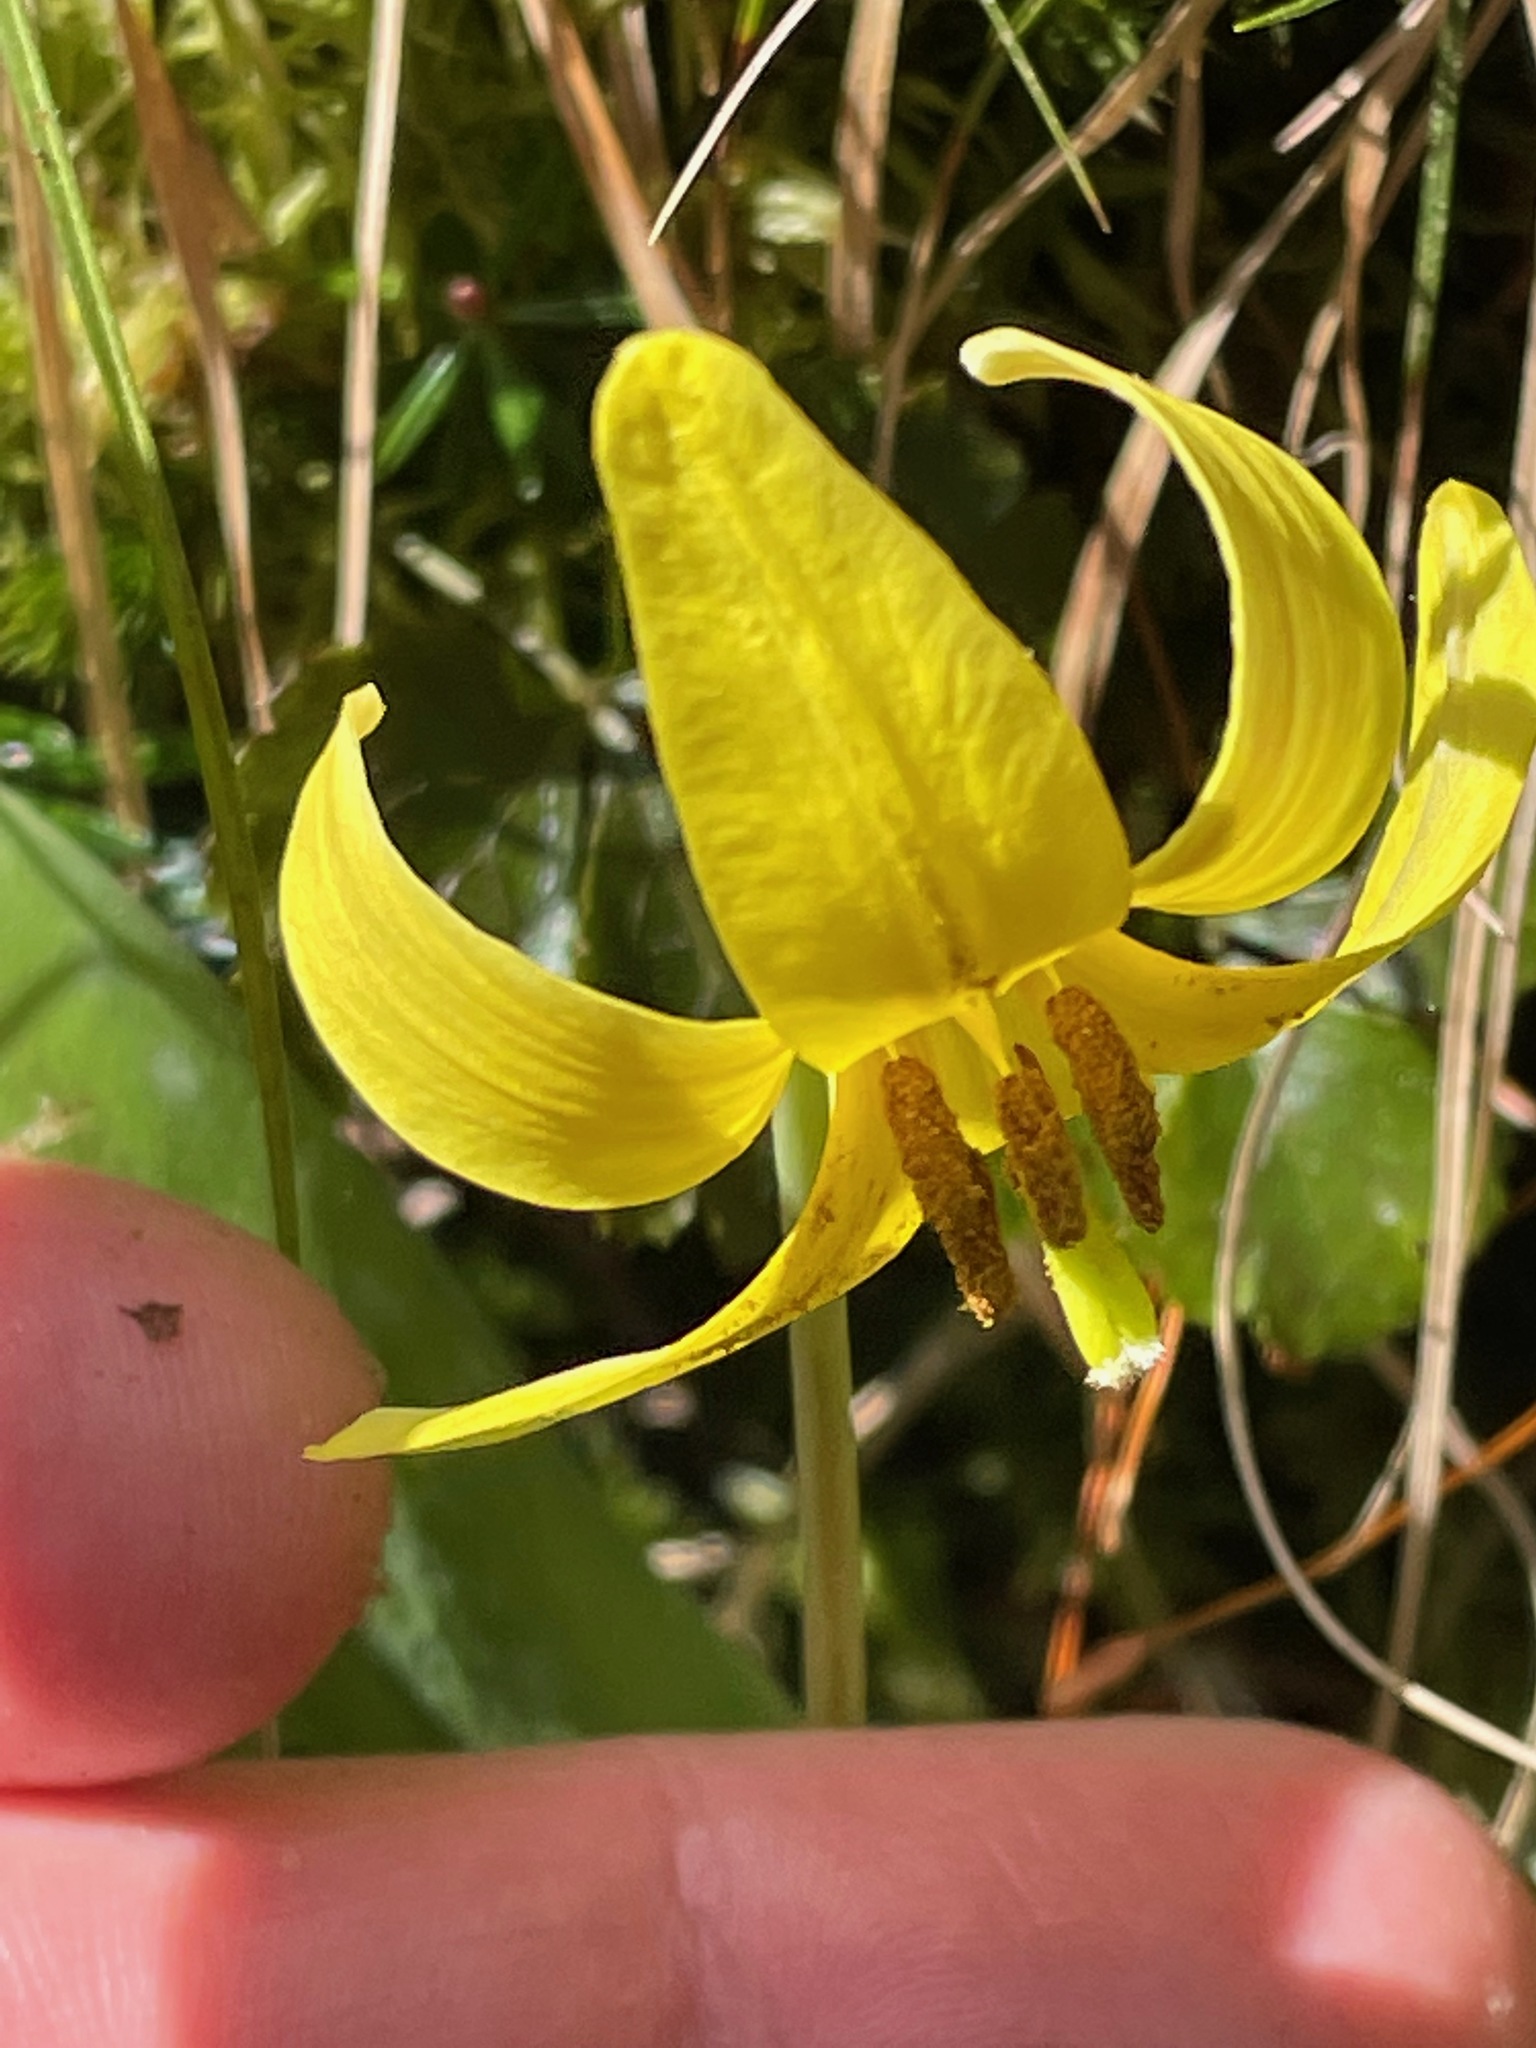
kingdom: Plantae
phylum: Tracheophyta
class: Liliopsida
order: Liliales
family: Liliaceae
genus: Erythronium
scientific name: Erythronium americanum
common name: Yellow adder's-tongue
